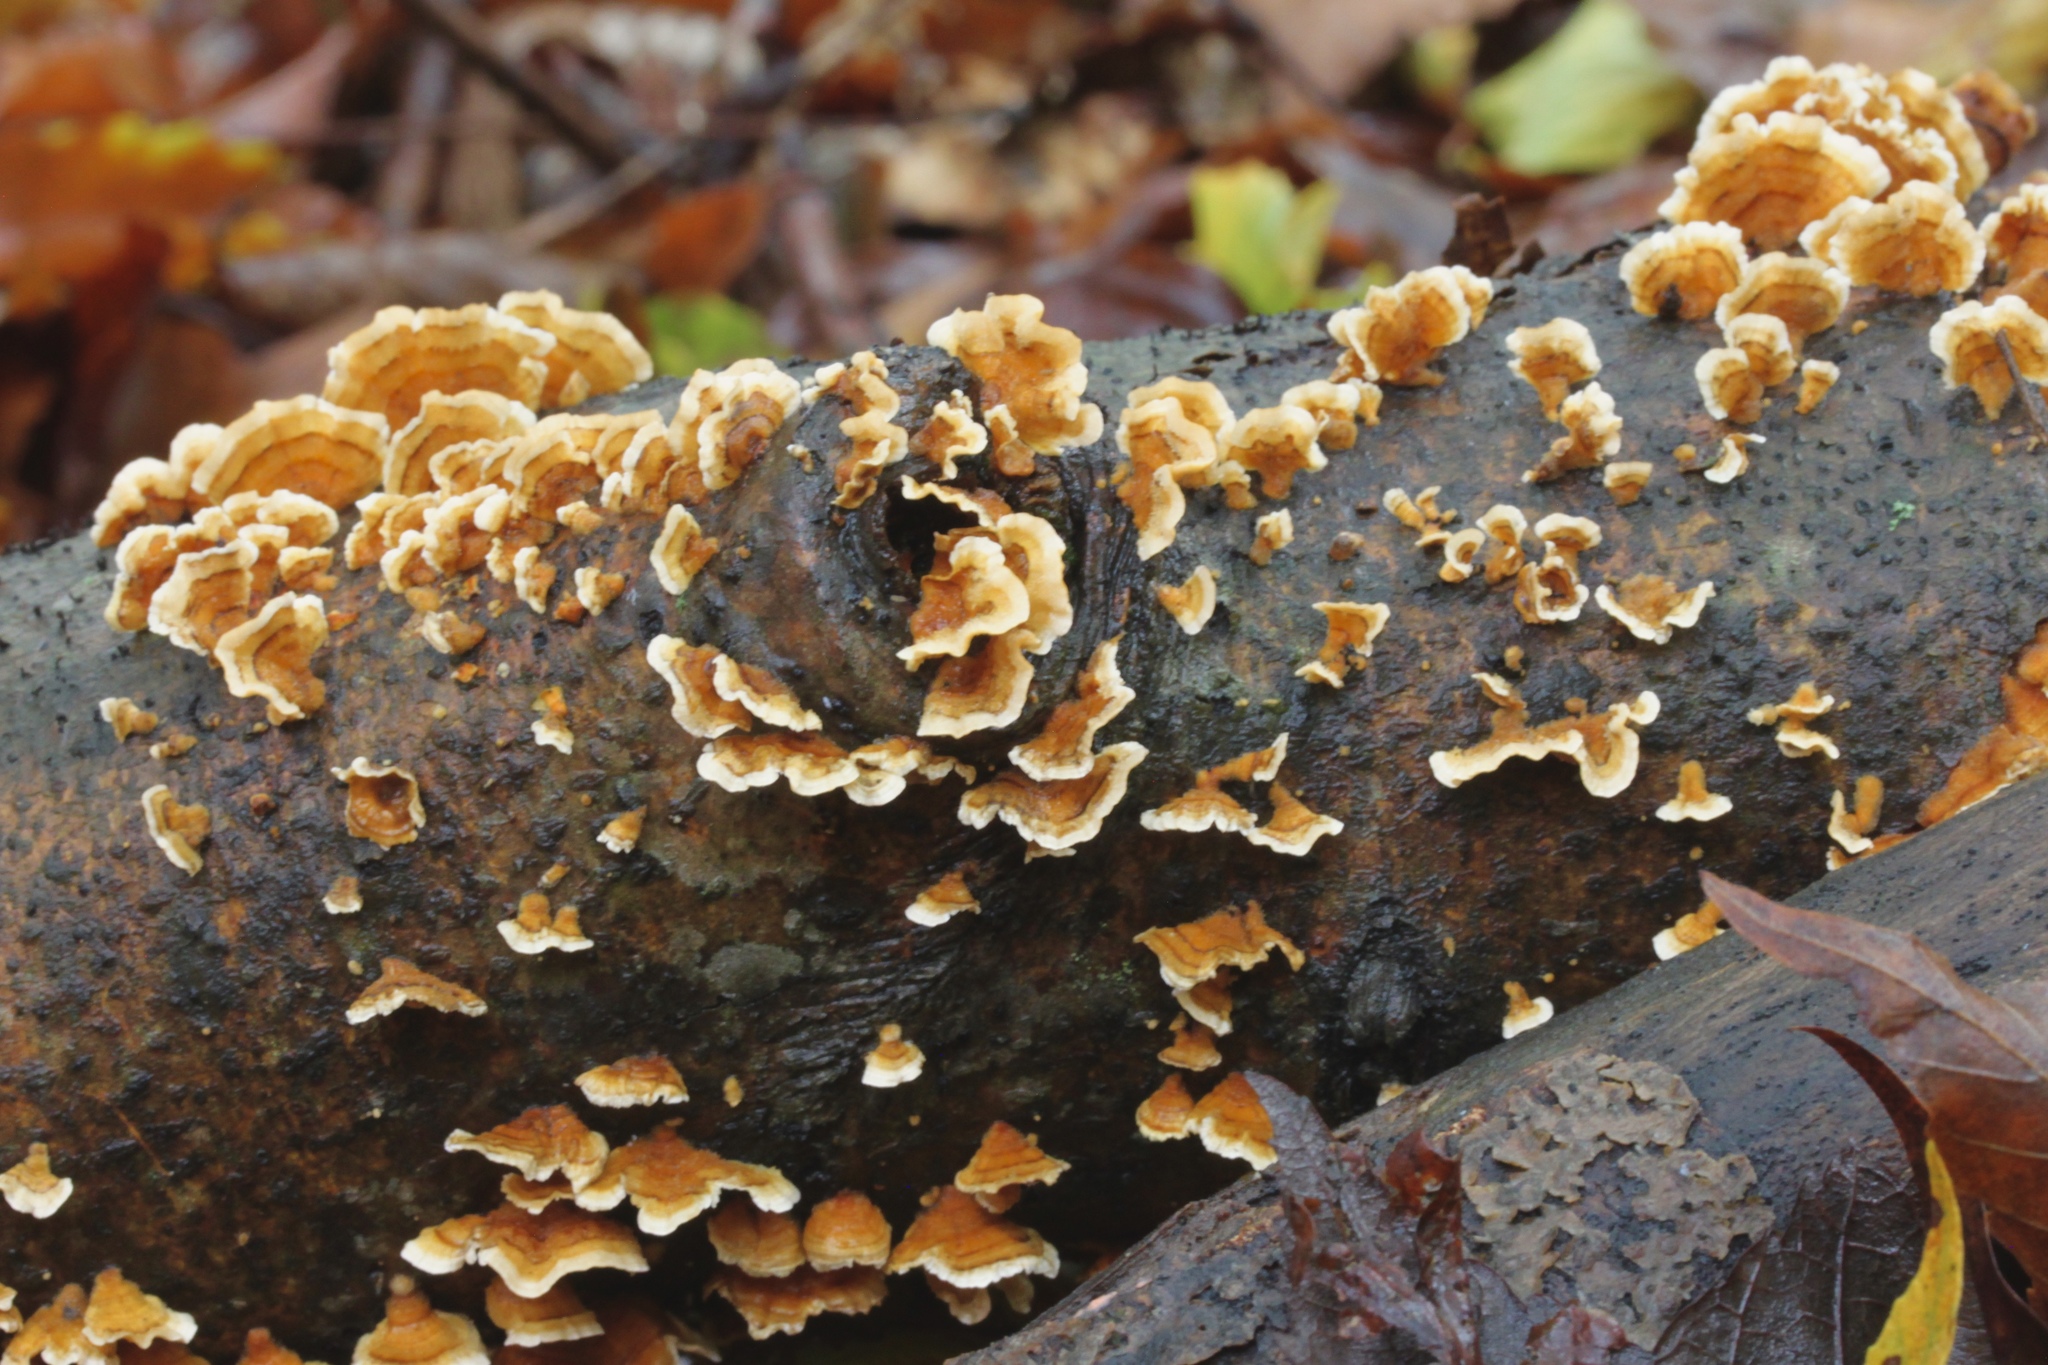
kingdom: Fungi
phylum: Basidiomycota
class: Agaricomycetes
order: Russulales
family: Stereaceae
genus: Stereum
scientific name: Stereum complicatum
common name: Crowded parchment
